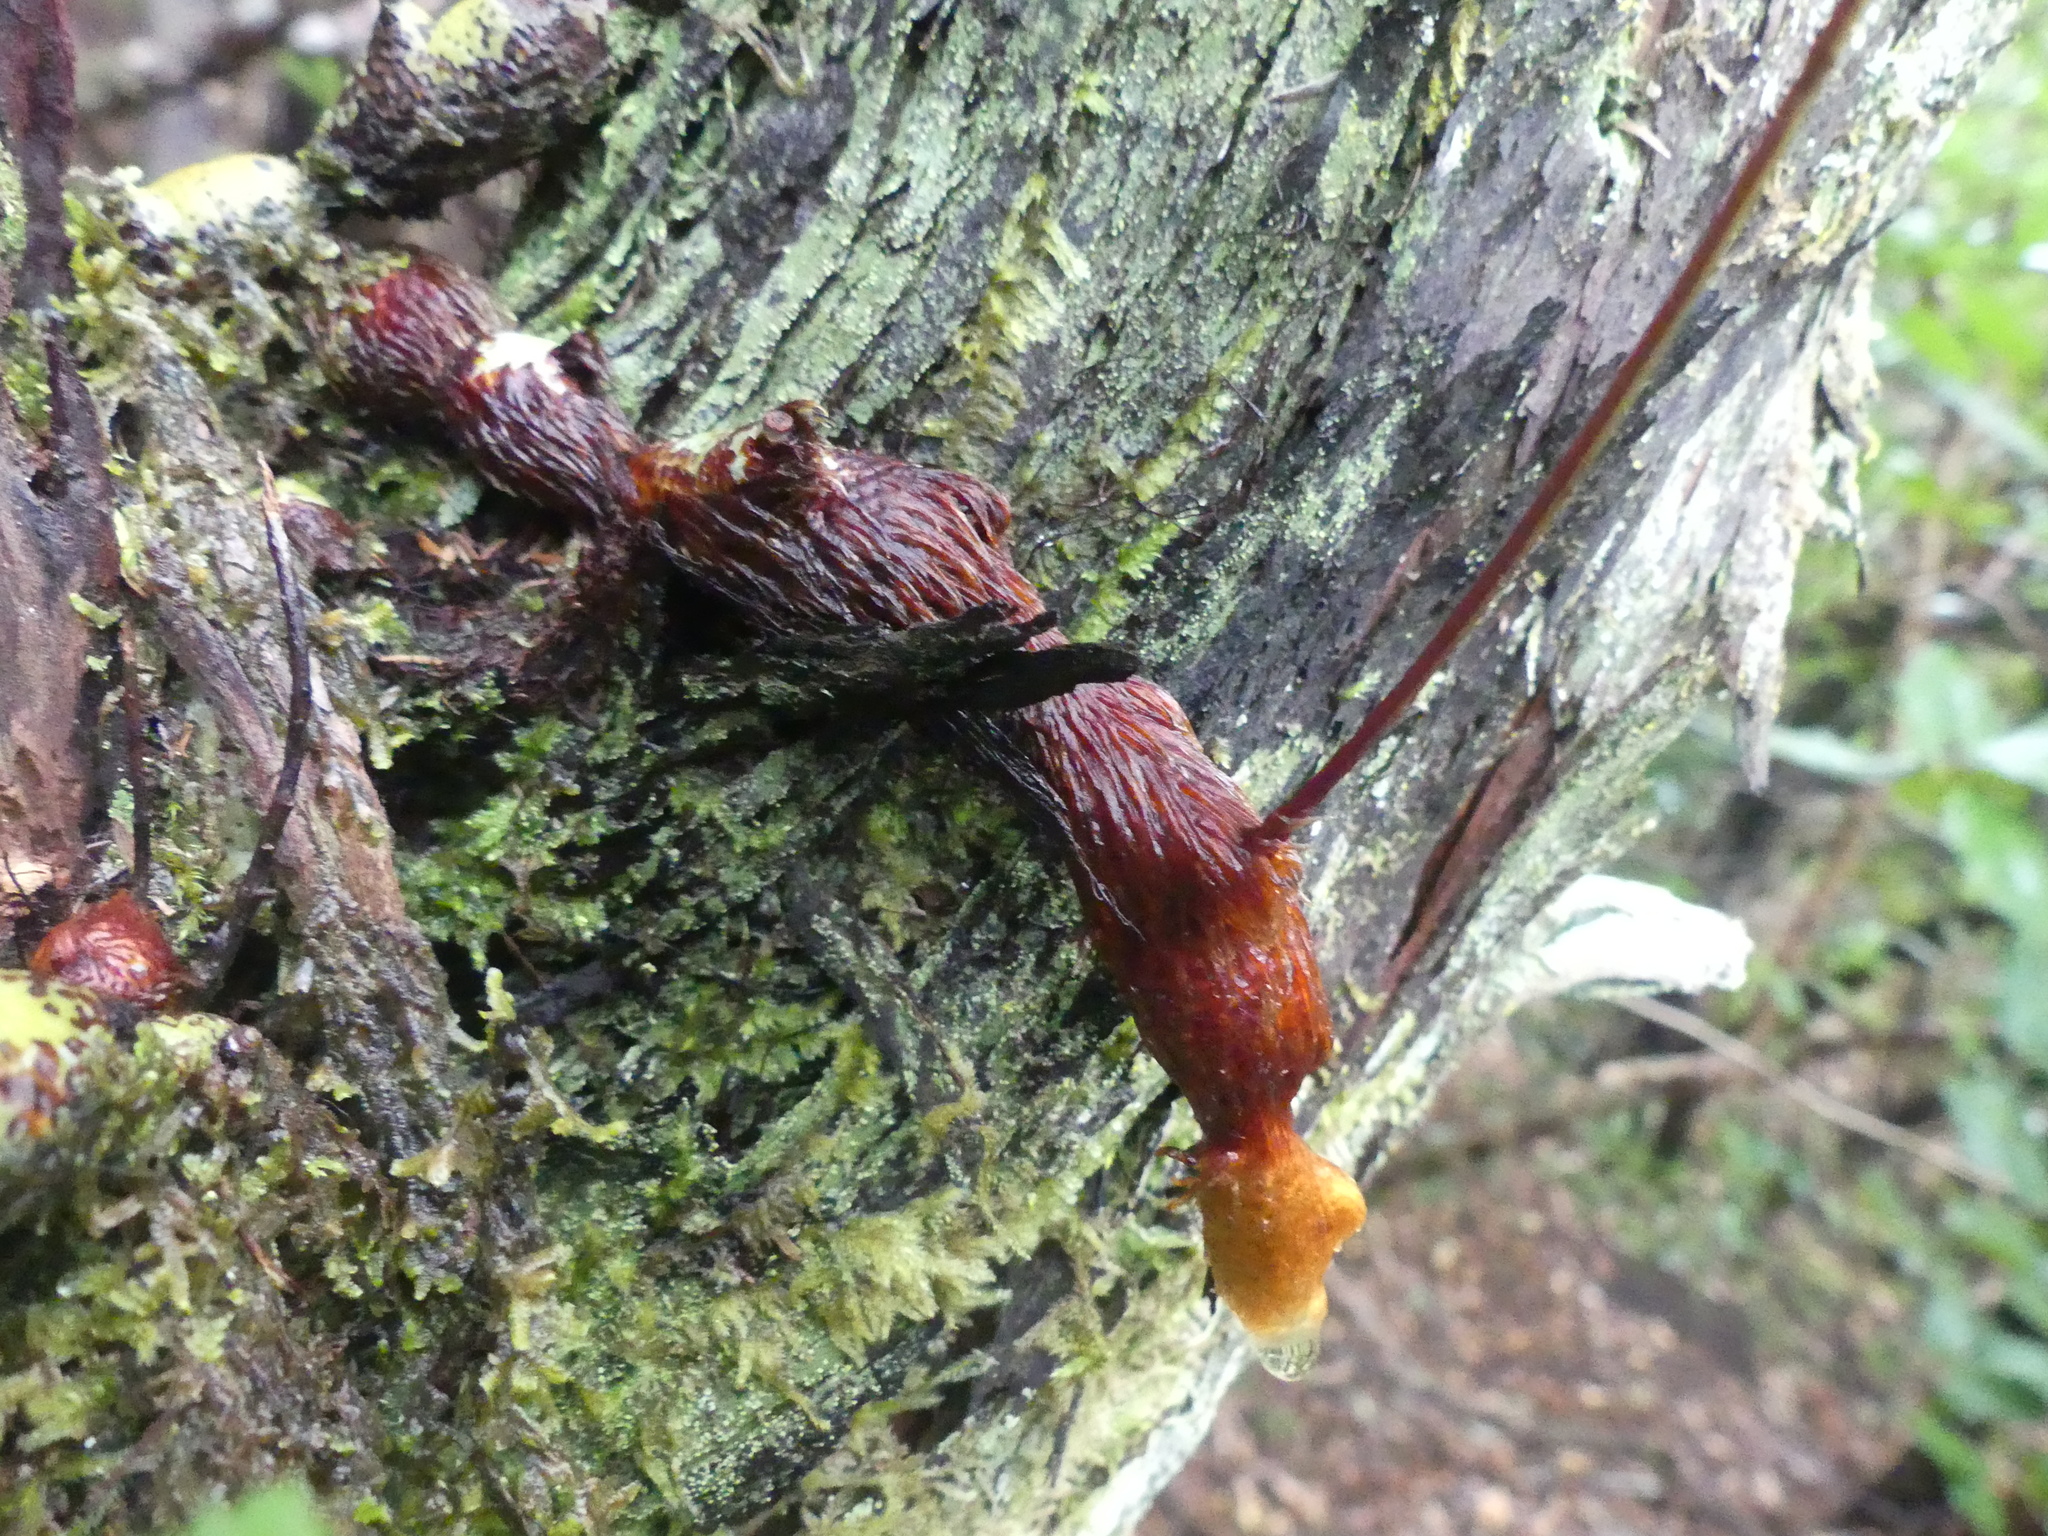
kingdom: Plantae
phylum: Tracheophyta
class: Polypodiopsida
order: Polypodiales
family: Davalliaceae
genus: Davallia
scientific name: Davallia canariensis
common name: Hare's-foot fern
